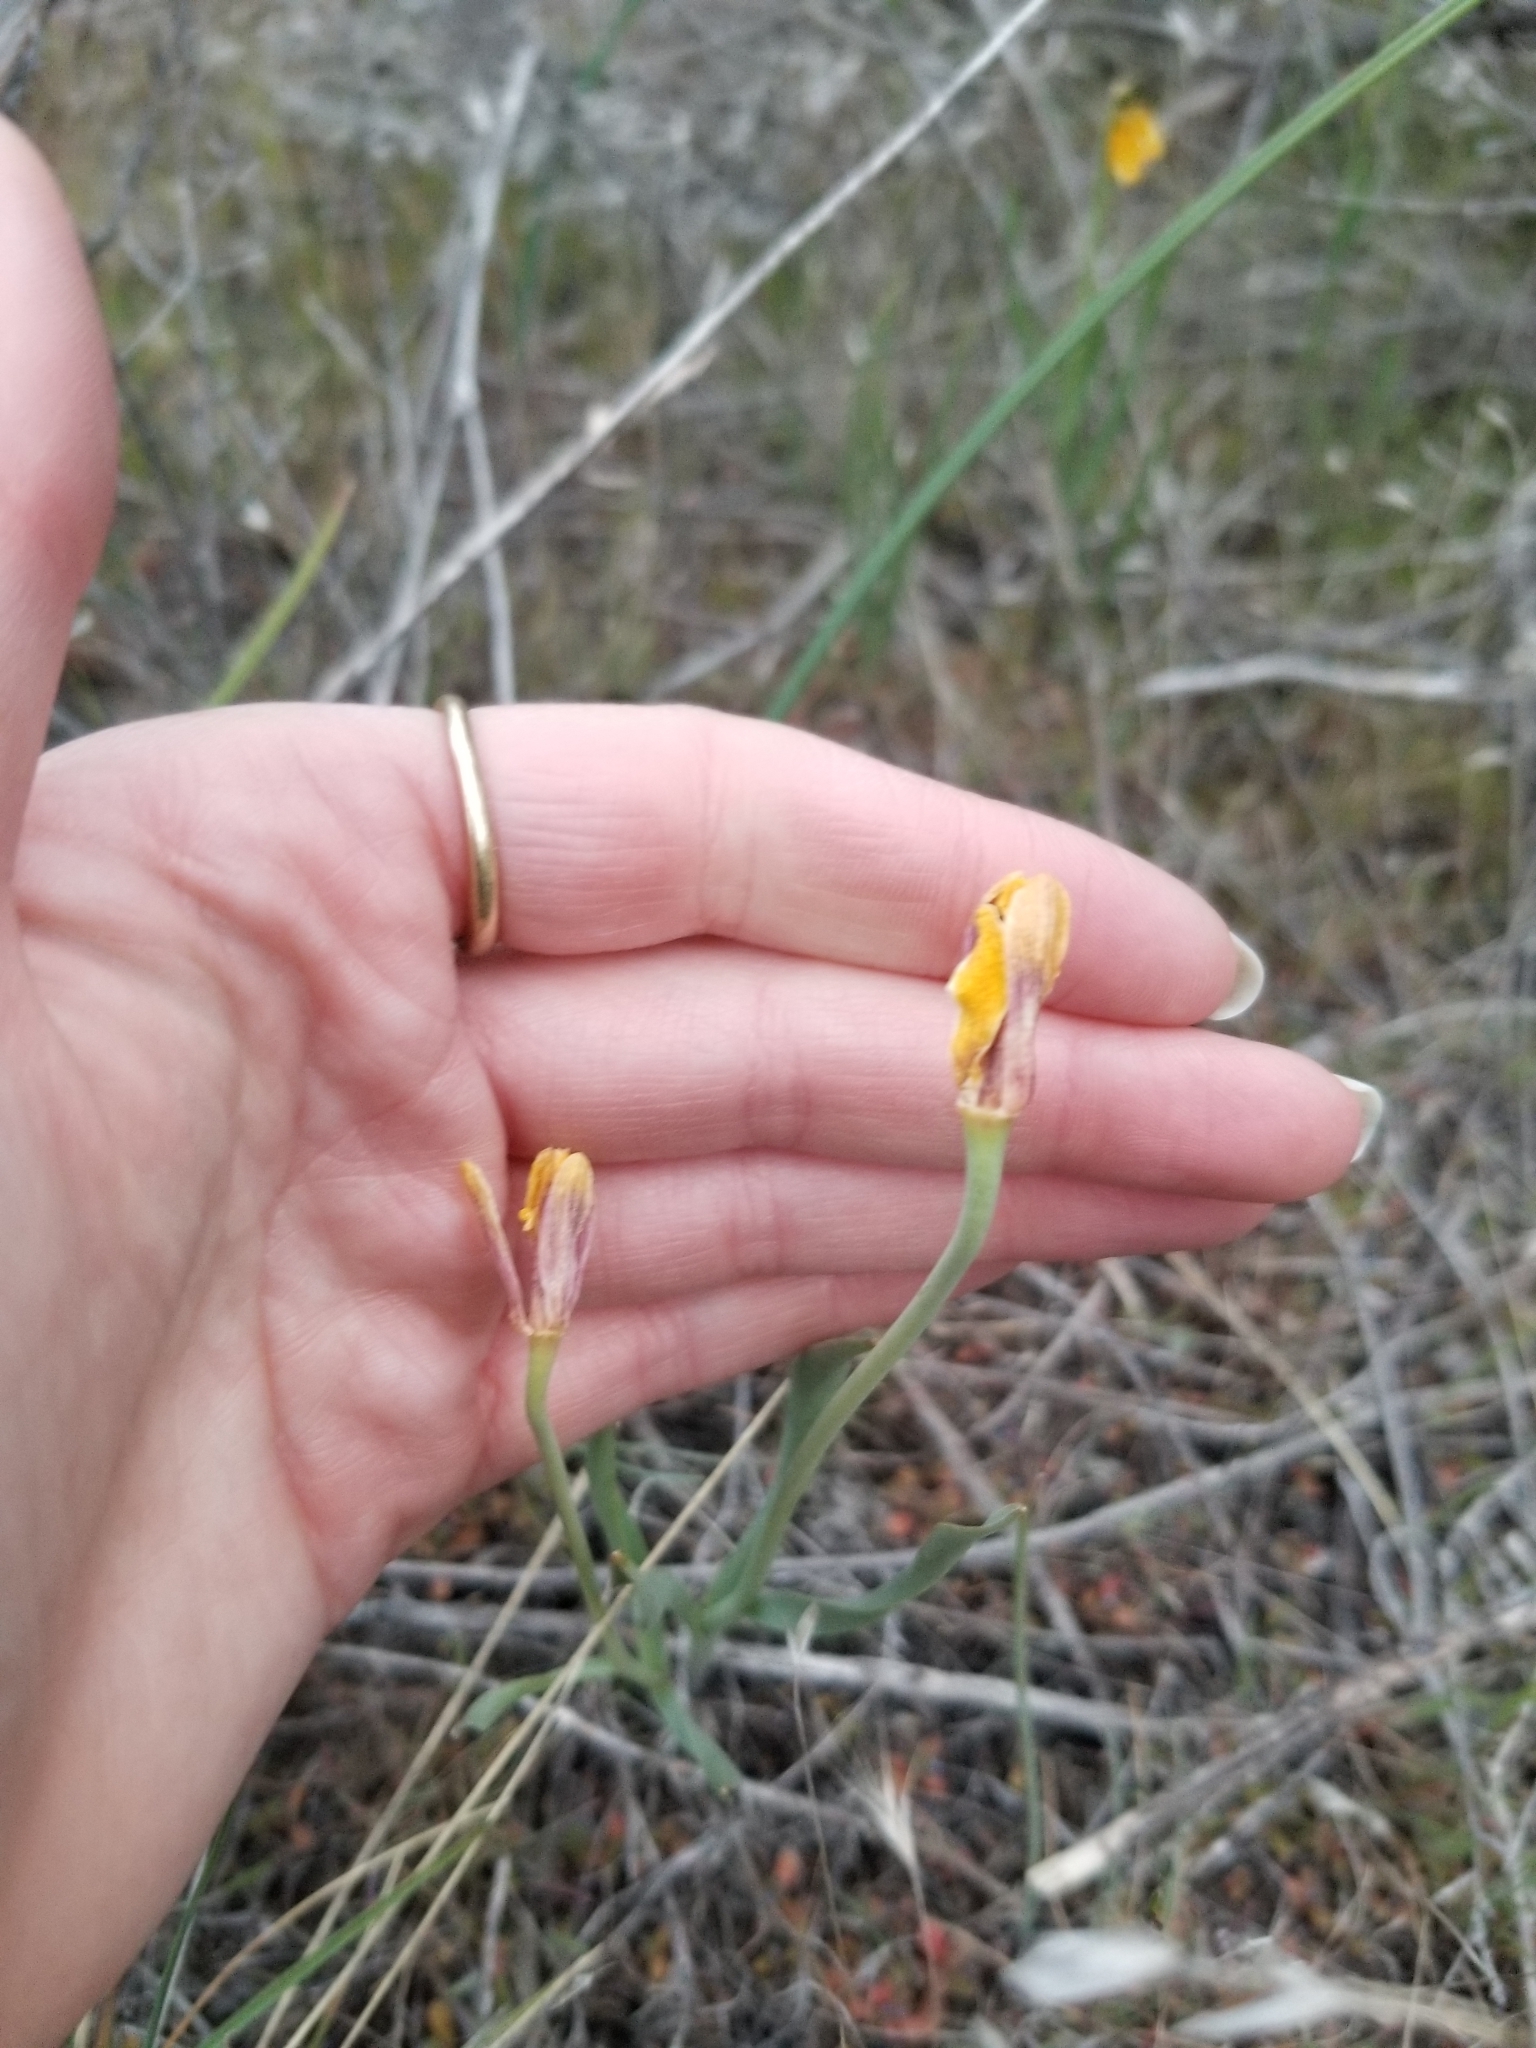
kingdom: Plantae
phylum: Tracheophyta
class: Liliopsida
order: Liliales
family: Liliaceae
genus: Fritillaria
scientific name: Fritillaria pudica
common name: Yellow fritillary
